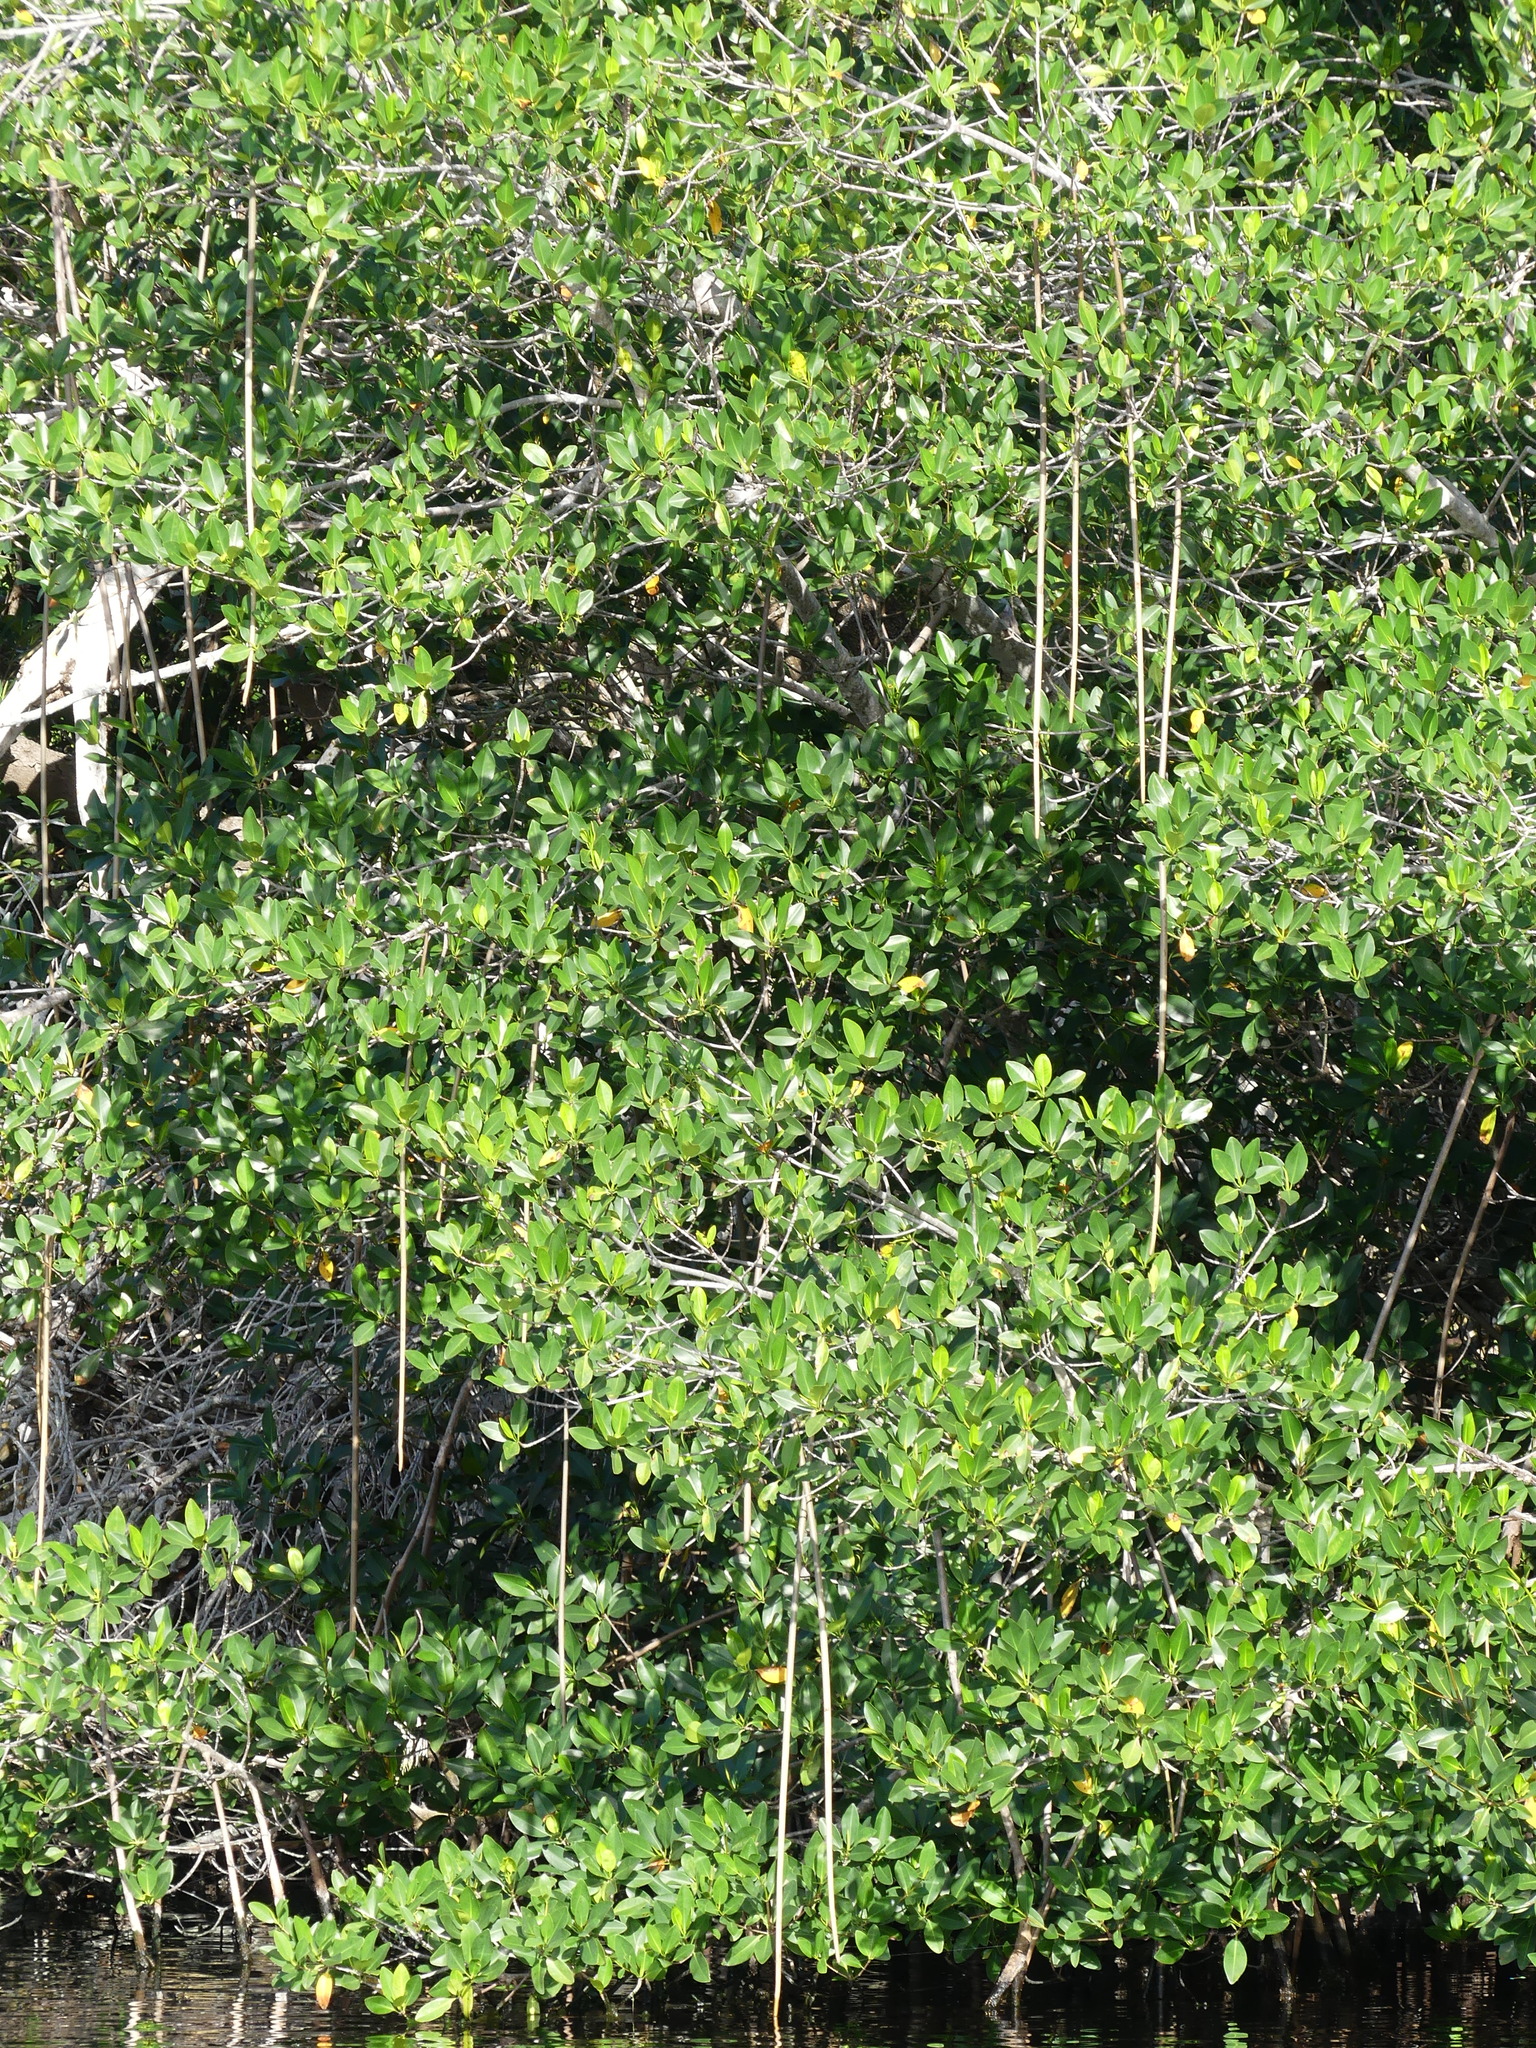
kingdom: Plantae
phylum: Tracheophyta
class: Magnoliopsida
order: Malpighiales
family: Rhizophoraceae
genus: Rhizophora
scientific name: Rhizophora mangle
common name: Red mangrove
